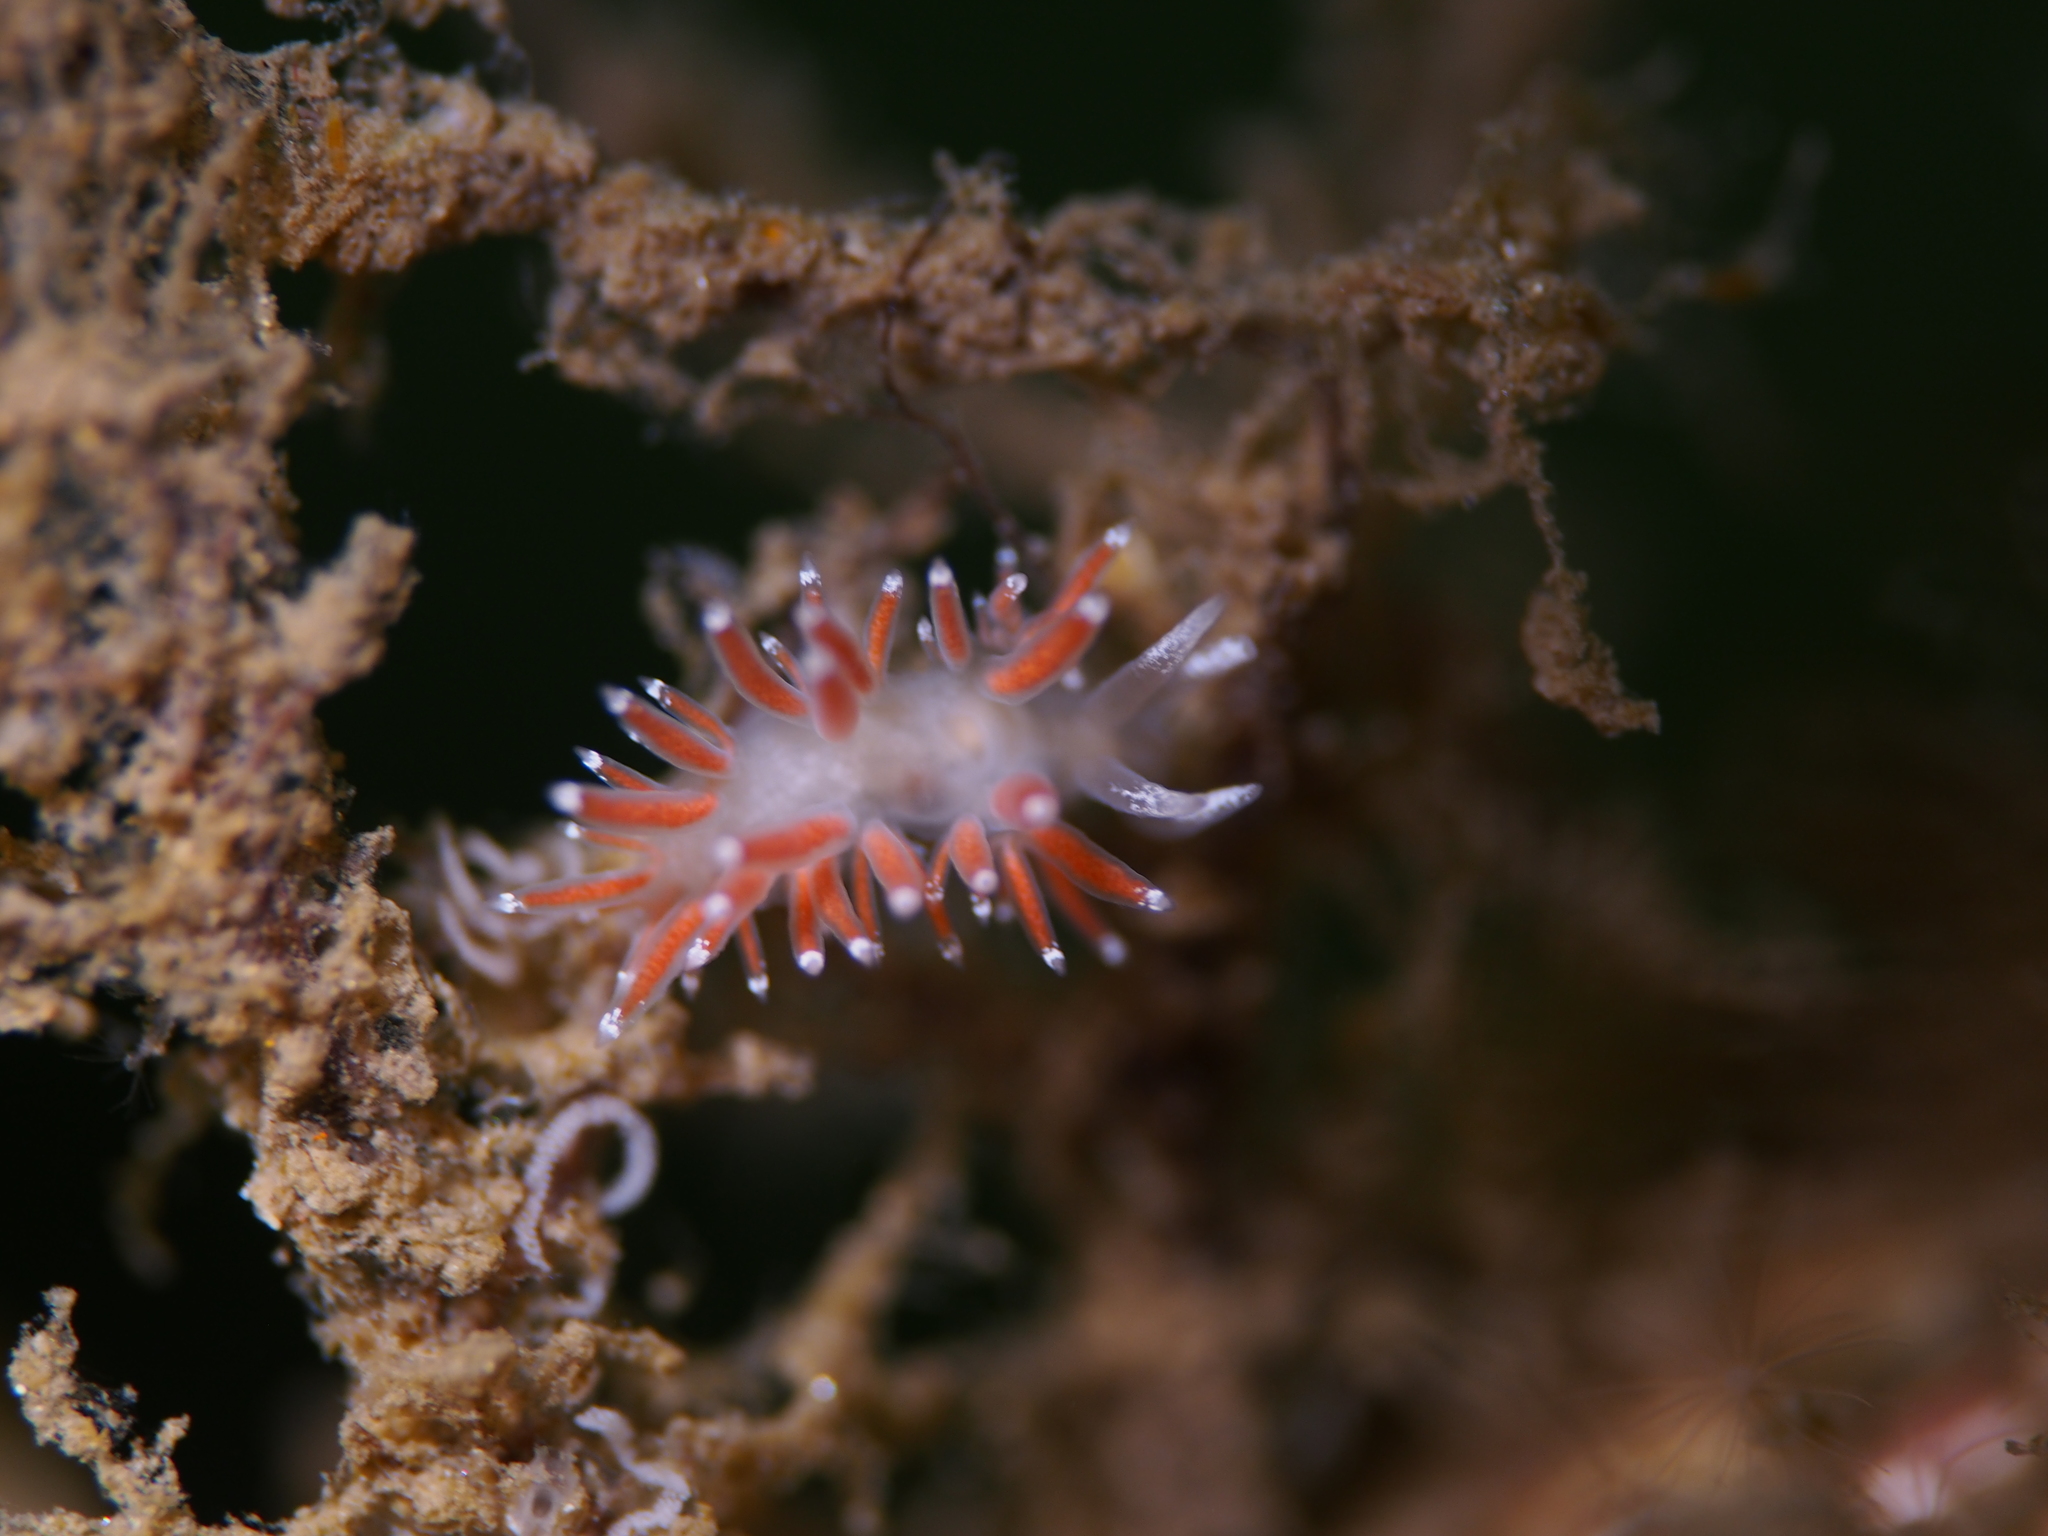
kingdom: Animalia
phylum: Mollusca
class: Gastropoda
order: Nudibranchia
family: Coryphellidae
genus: Coryphella
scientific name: Coryphella gracilis
